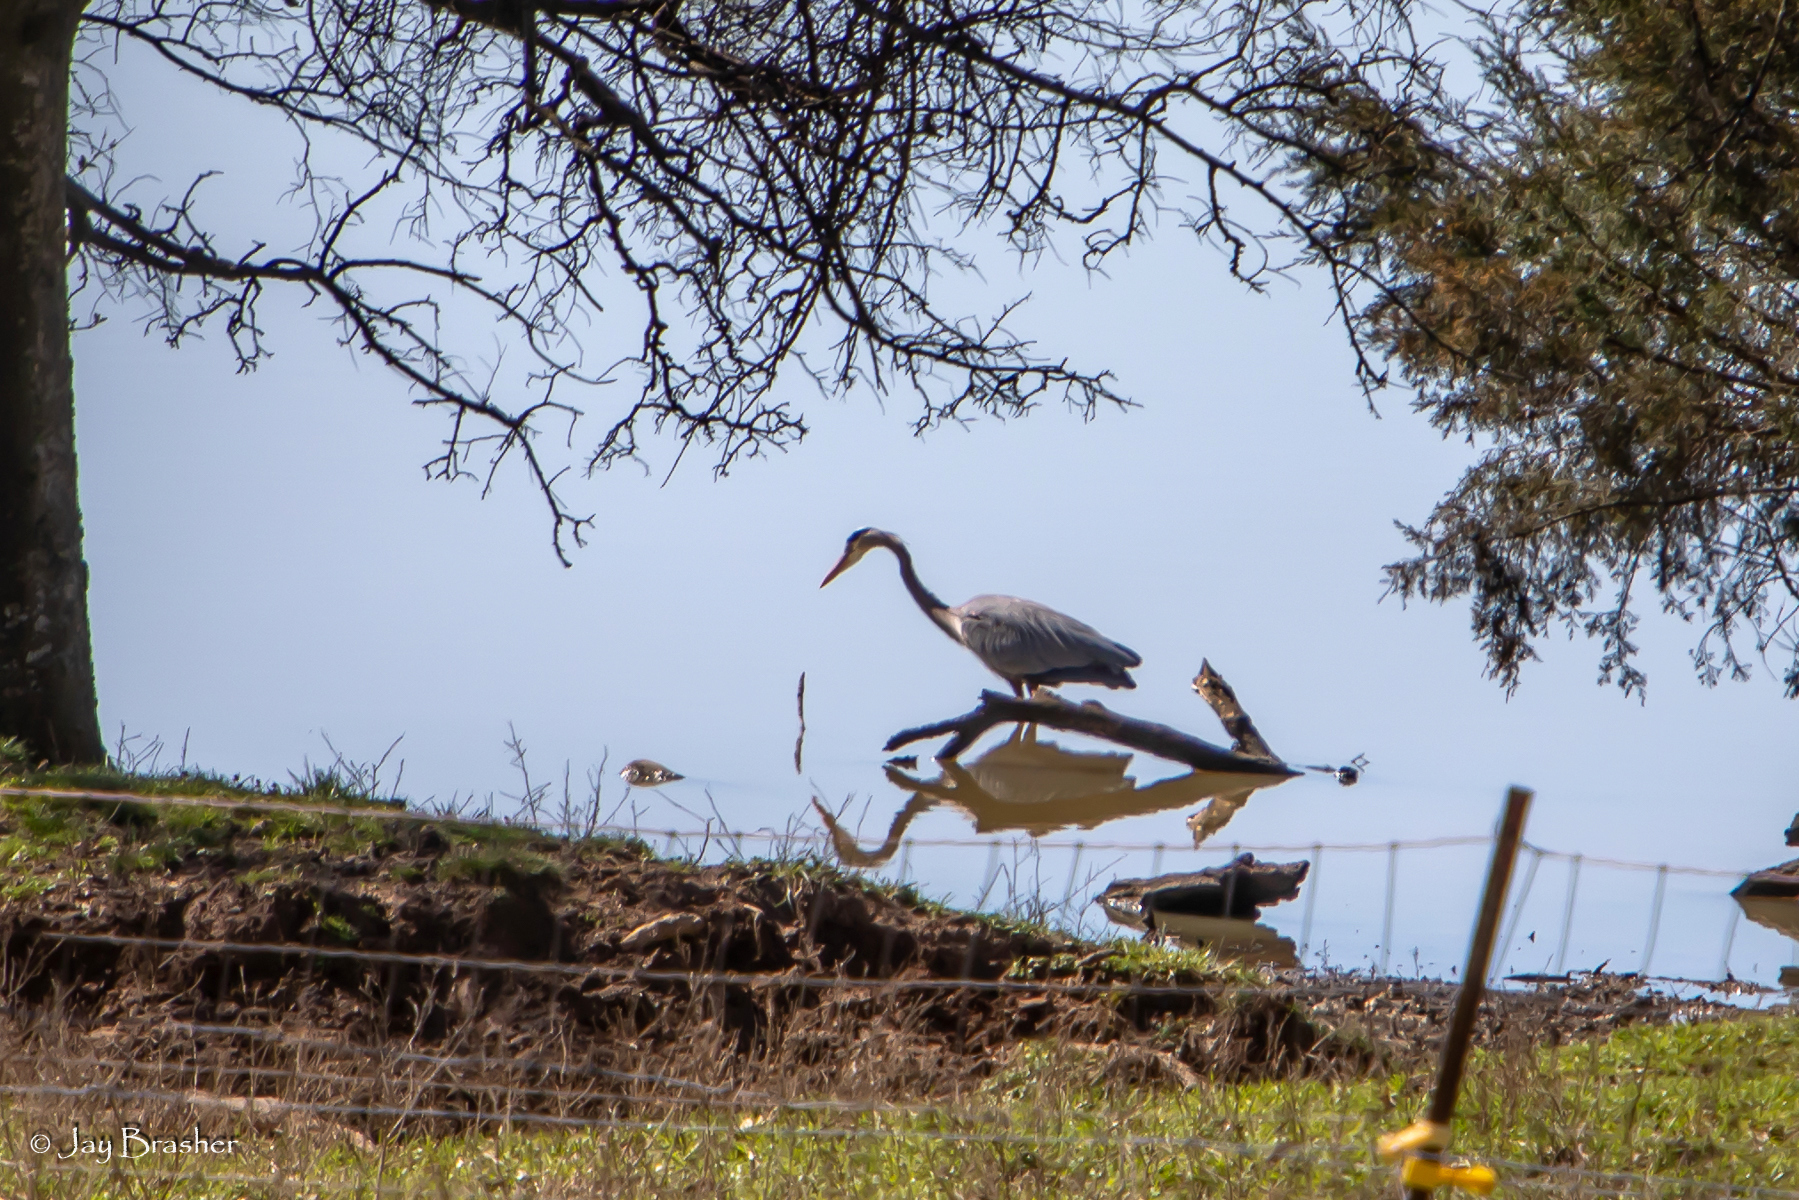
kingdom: Animalia
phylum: Chordata
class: Aves
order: Pelecaniformes
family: Ardeidae
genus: Ardea
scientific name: Ardea herodias
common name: Great blue heron
